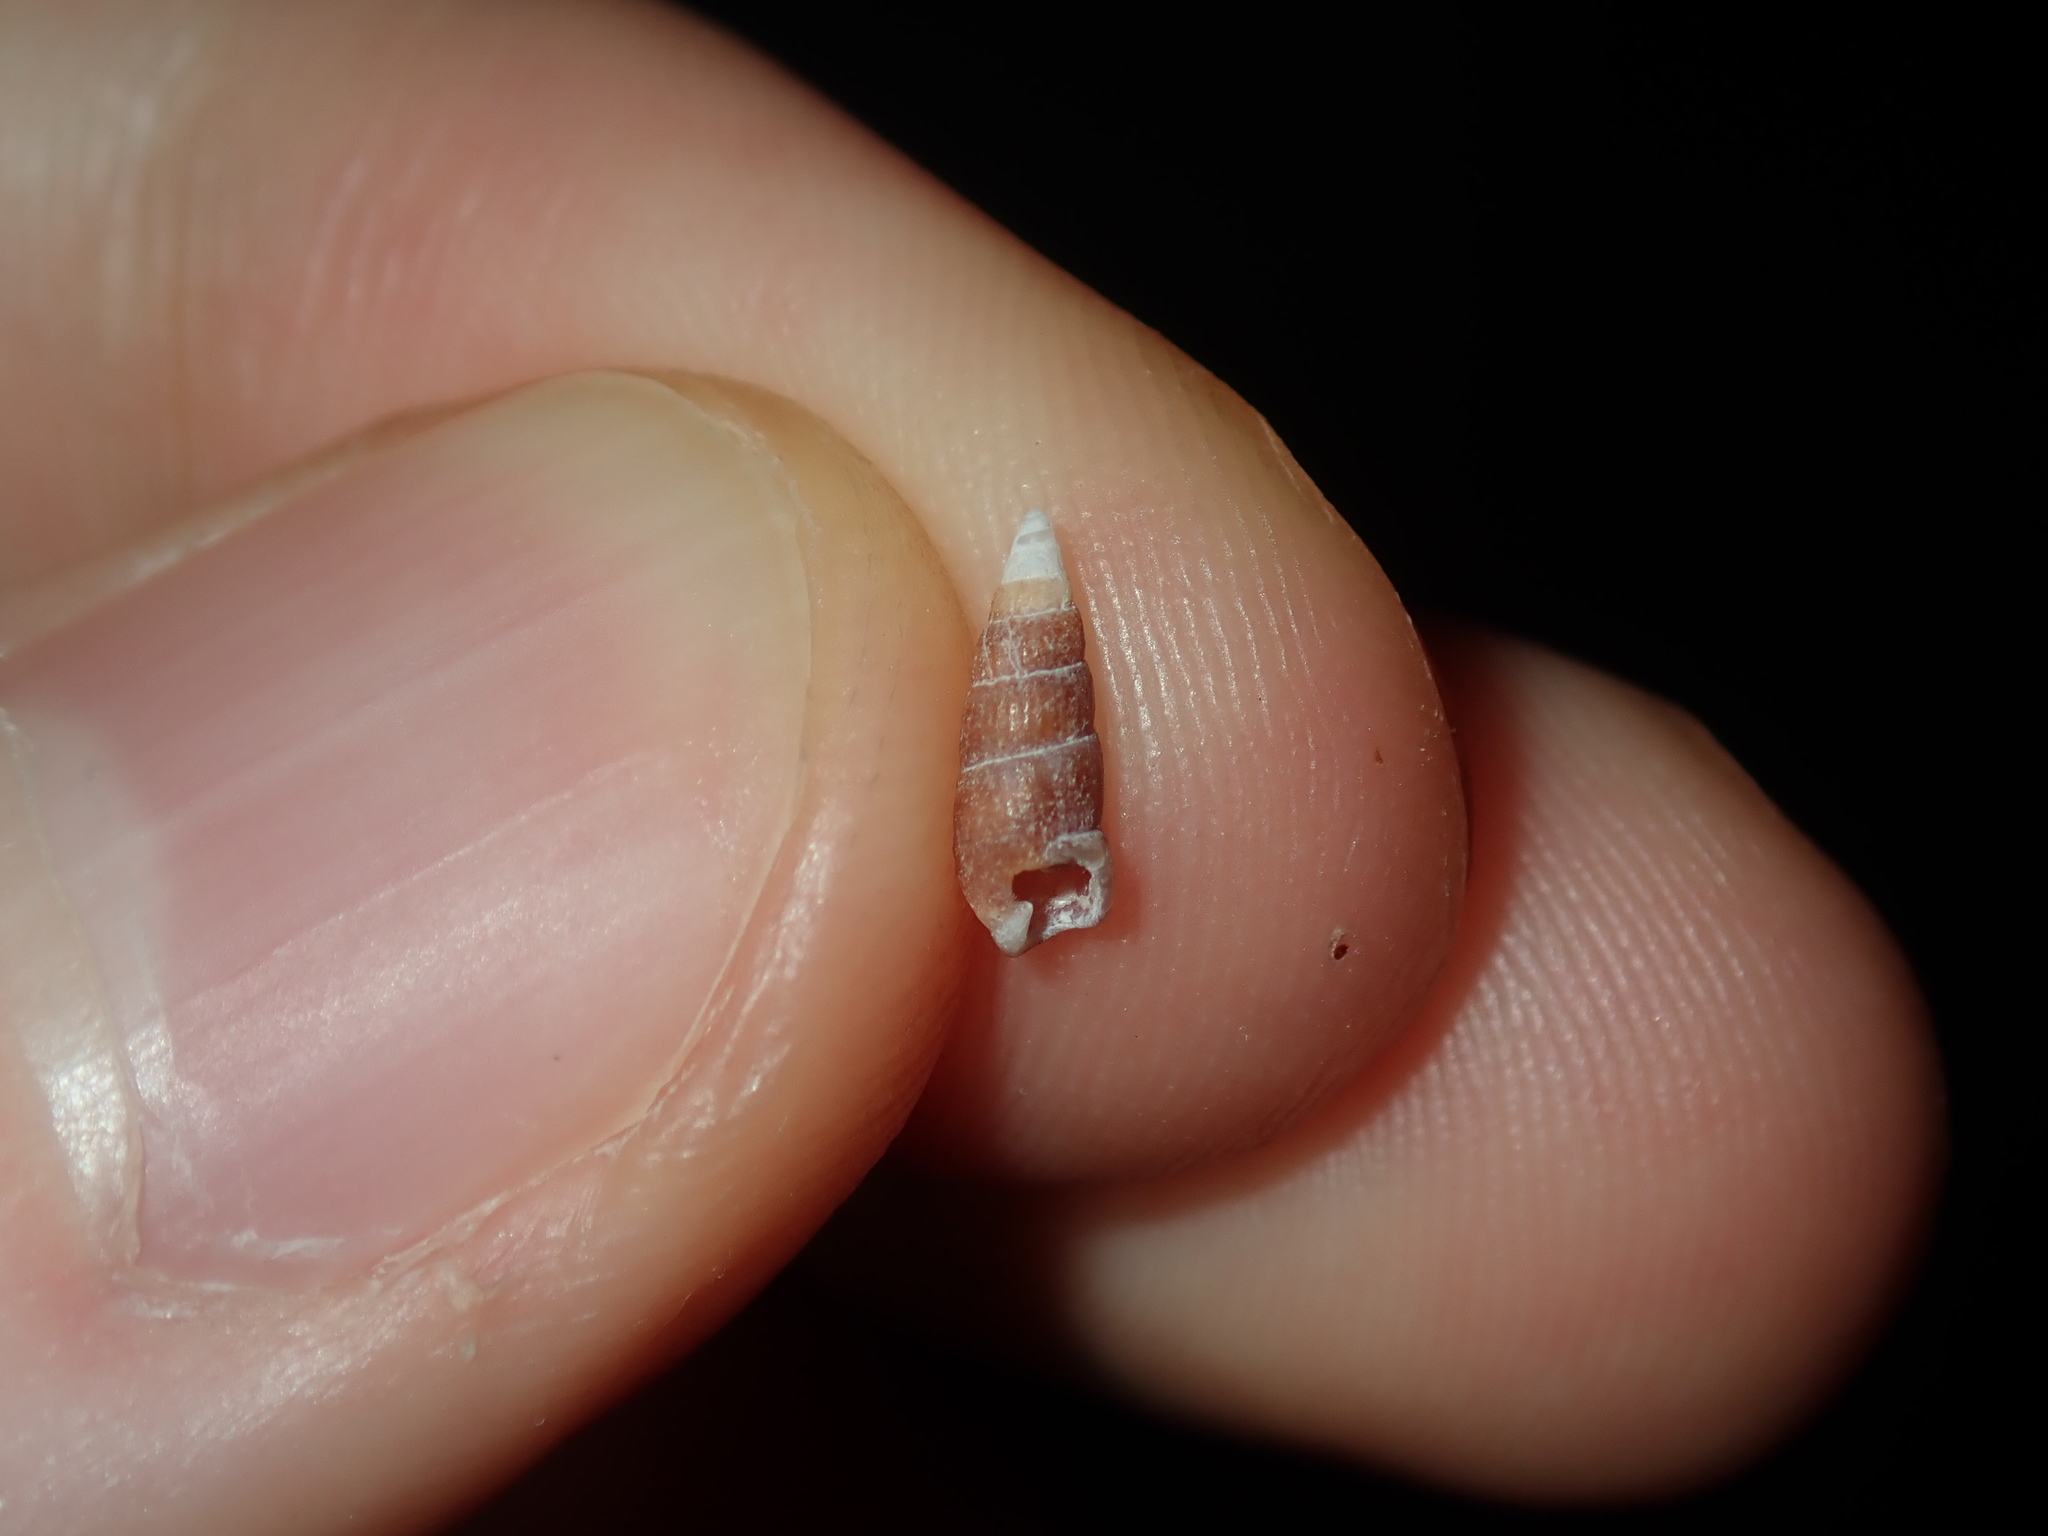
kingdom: Animalia
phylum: Mollusca
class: Gastropoda
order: Littorinimorpha
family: Rissoinidae
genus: Rissoina
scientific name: Rissoina fasciata
